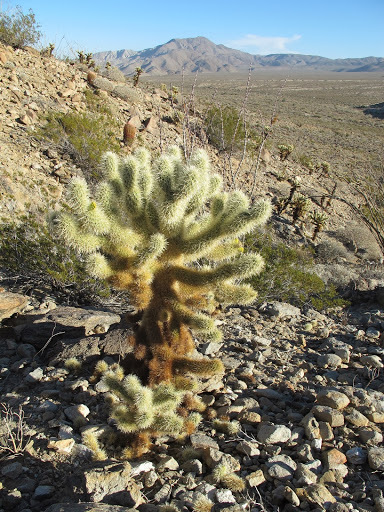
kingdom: Plantae
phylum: Tracheophyta
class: Magnoliopsida
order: Caryophyllales
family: Cactaceae
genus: Cylindropuntia
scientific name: Cylindropuntia fosbergii
